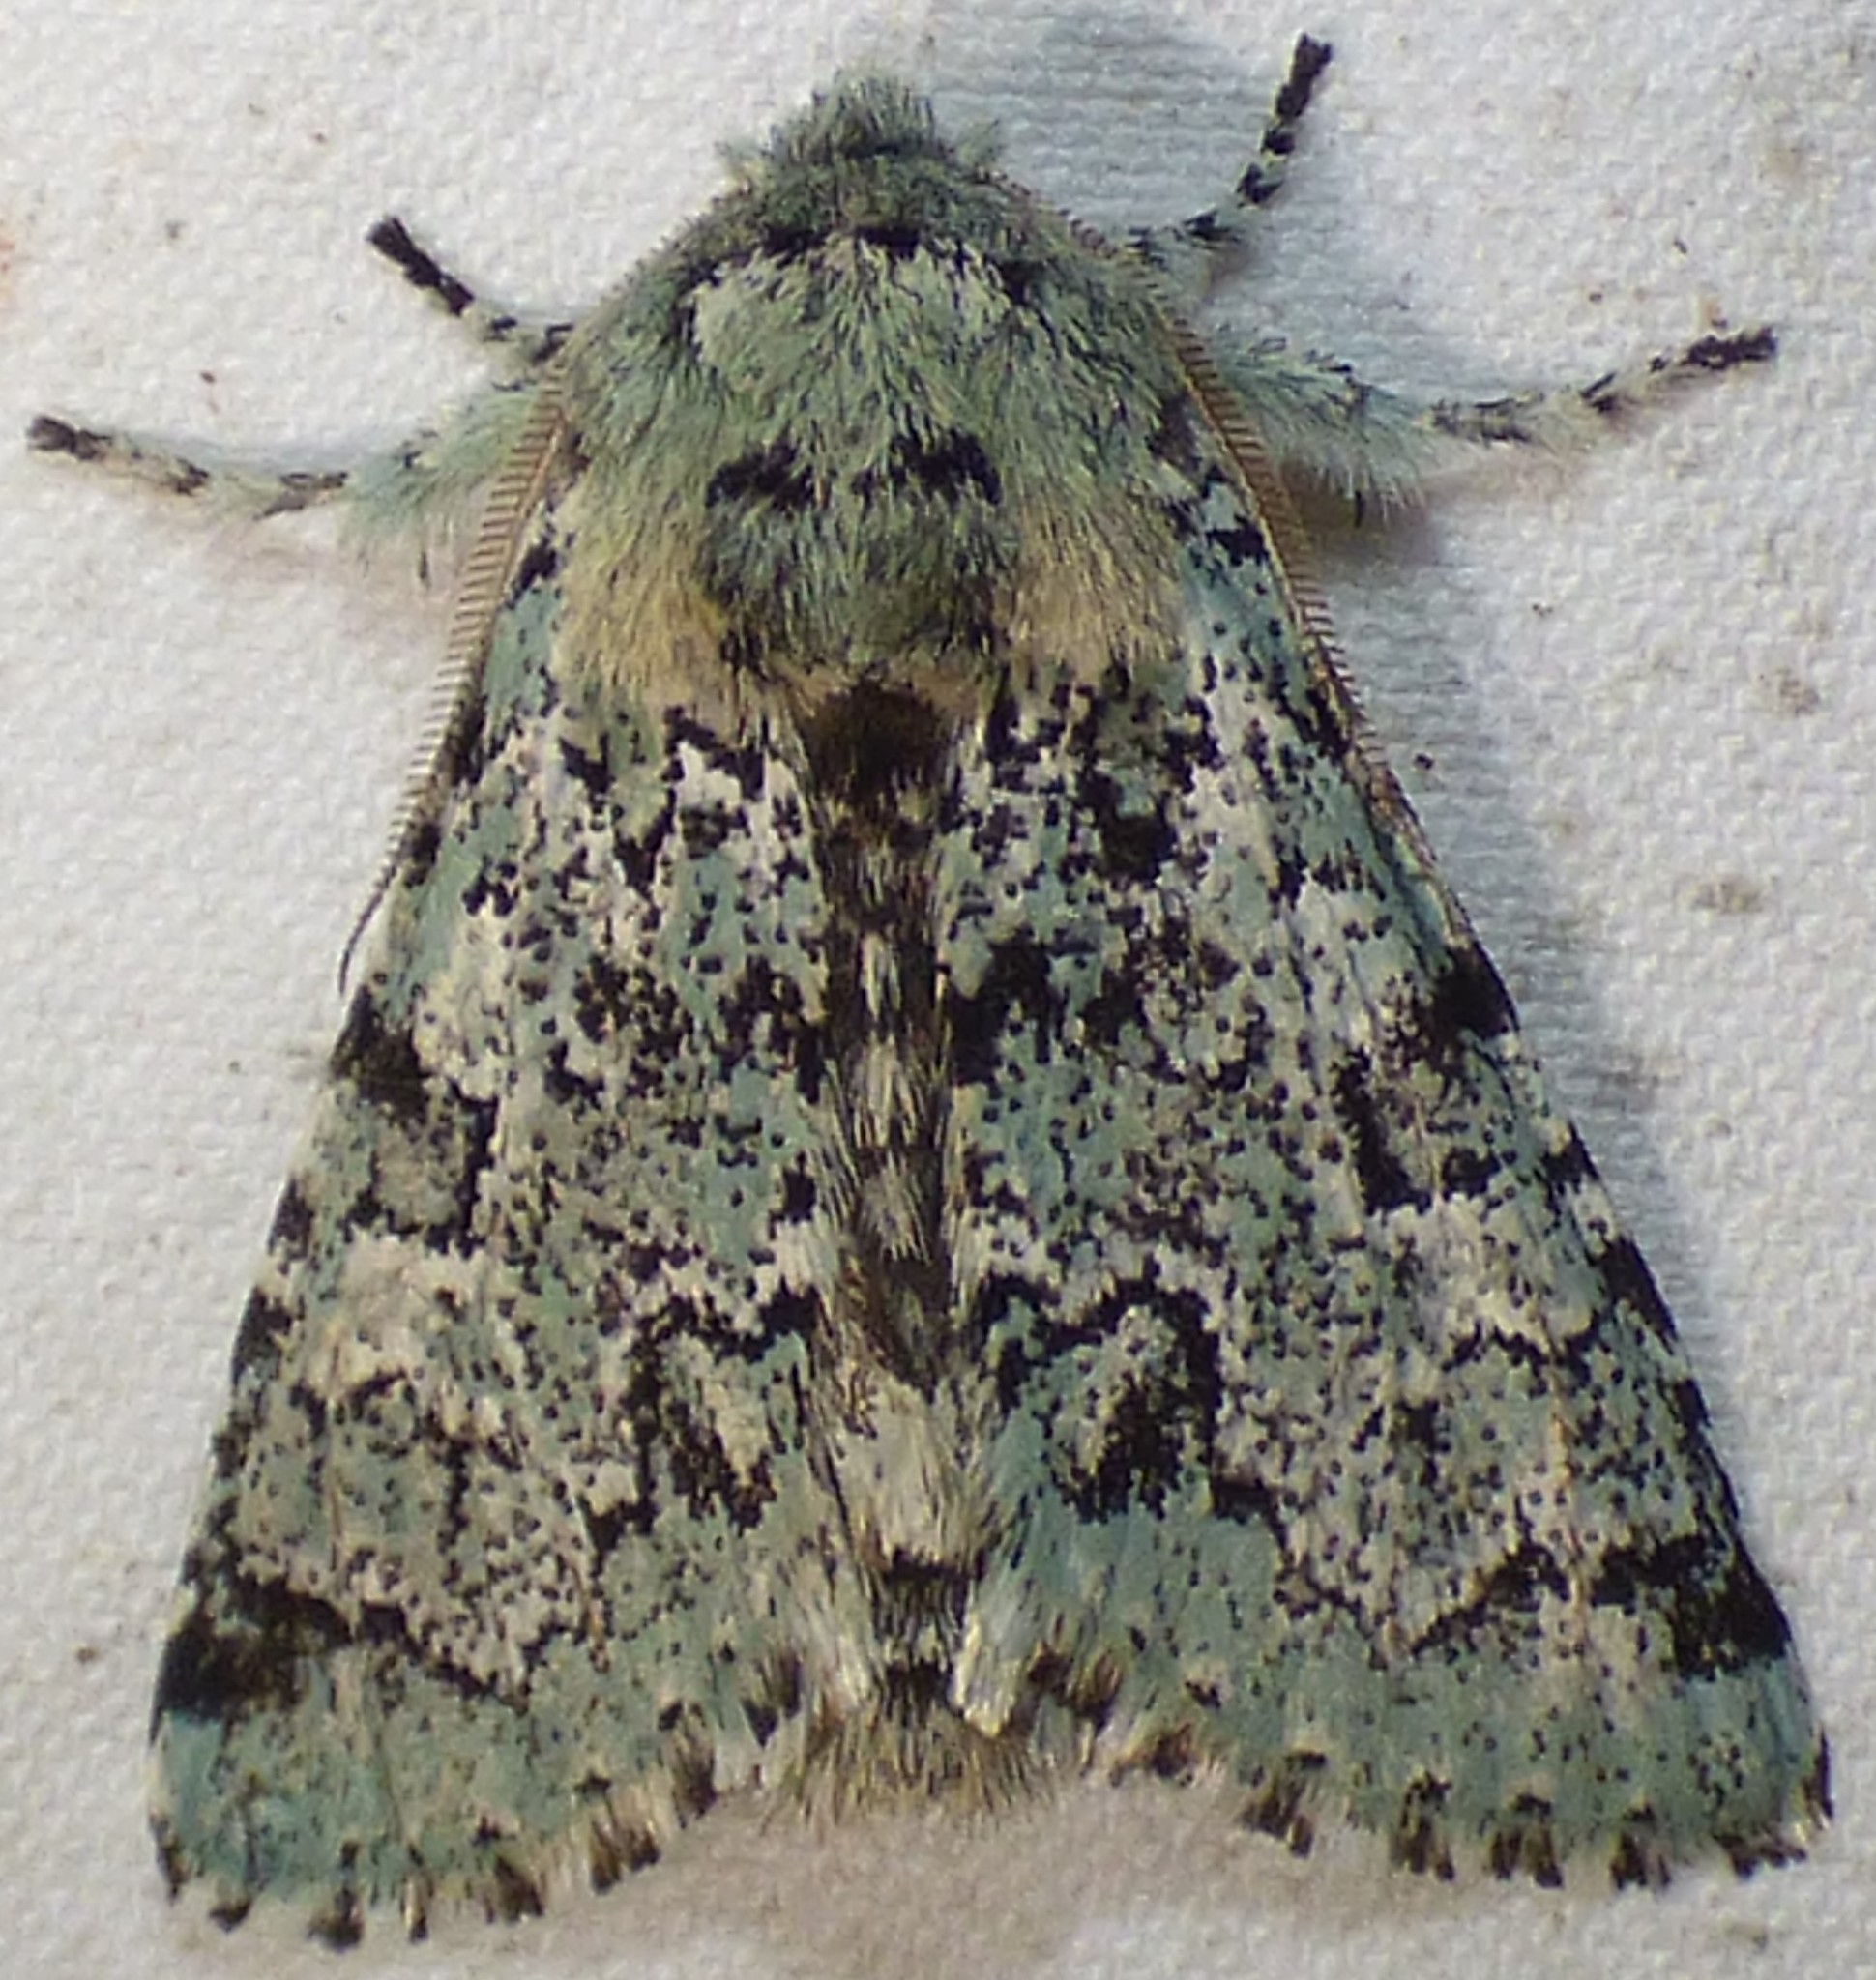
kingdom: Animalia
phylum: Arthropoda
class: Insecta
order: Lepidoptera
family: Noctuidae
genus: Feralia
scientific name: Feralia major
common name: Major sallow
